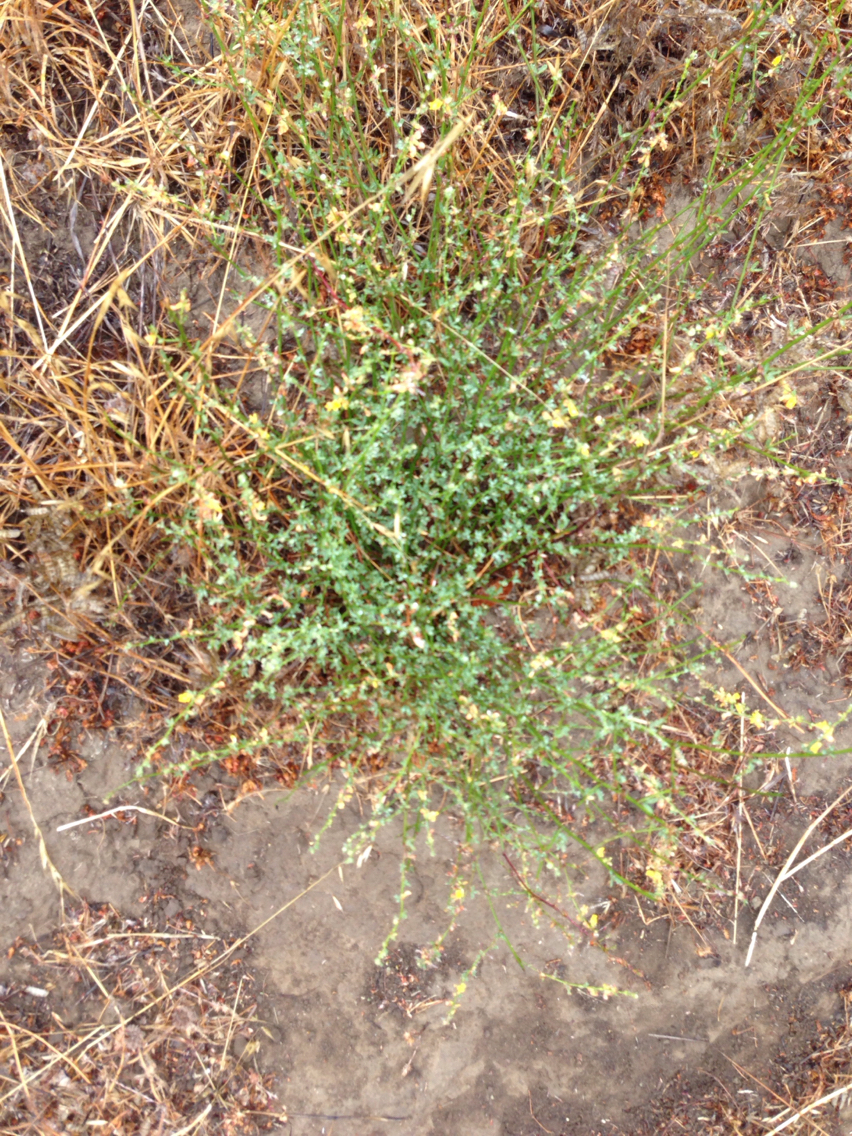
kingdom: Plantae
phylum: Tracheophyta
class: Magnoliopsida
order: Fabales
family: Fabaceae
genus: Acmispon
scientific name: Acmispon glaber
